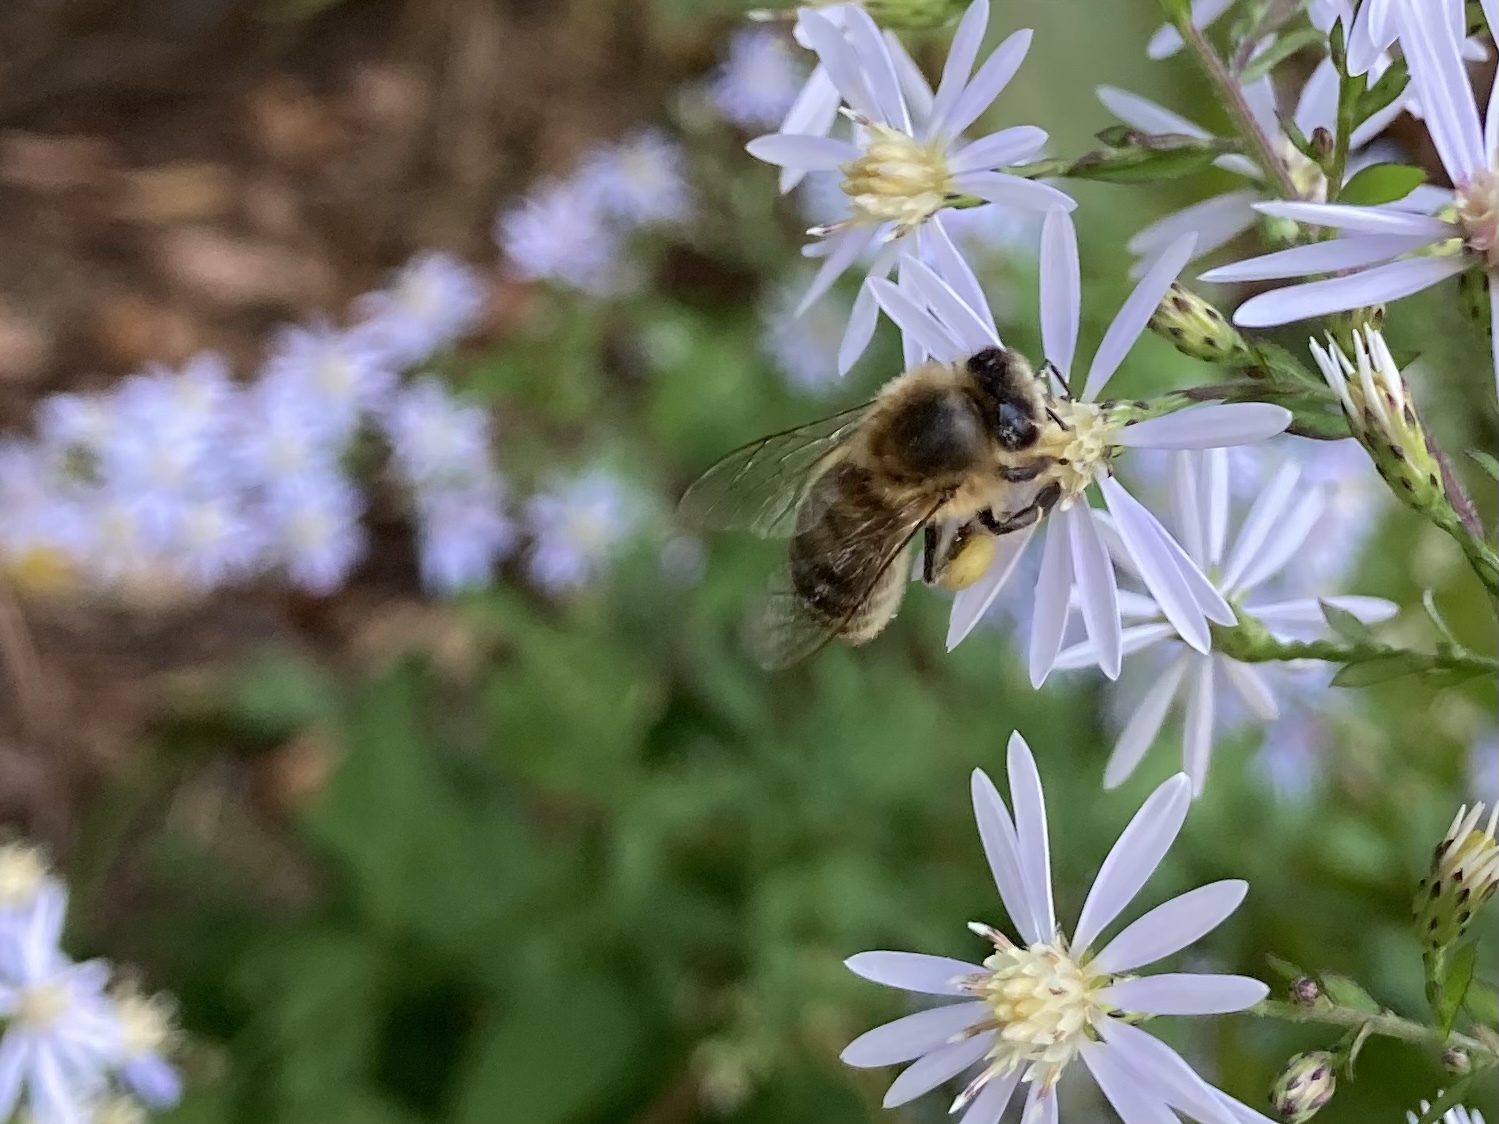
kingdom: Animalia
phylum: Arthropoda
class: Insecta
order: Hymenoptera
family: Apidae
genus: Apis
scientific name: Apis mellifera
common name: Honey bee
